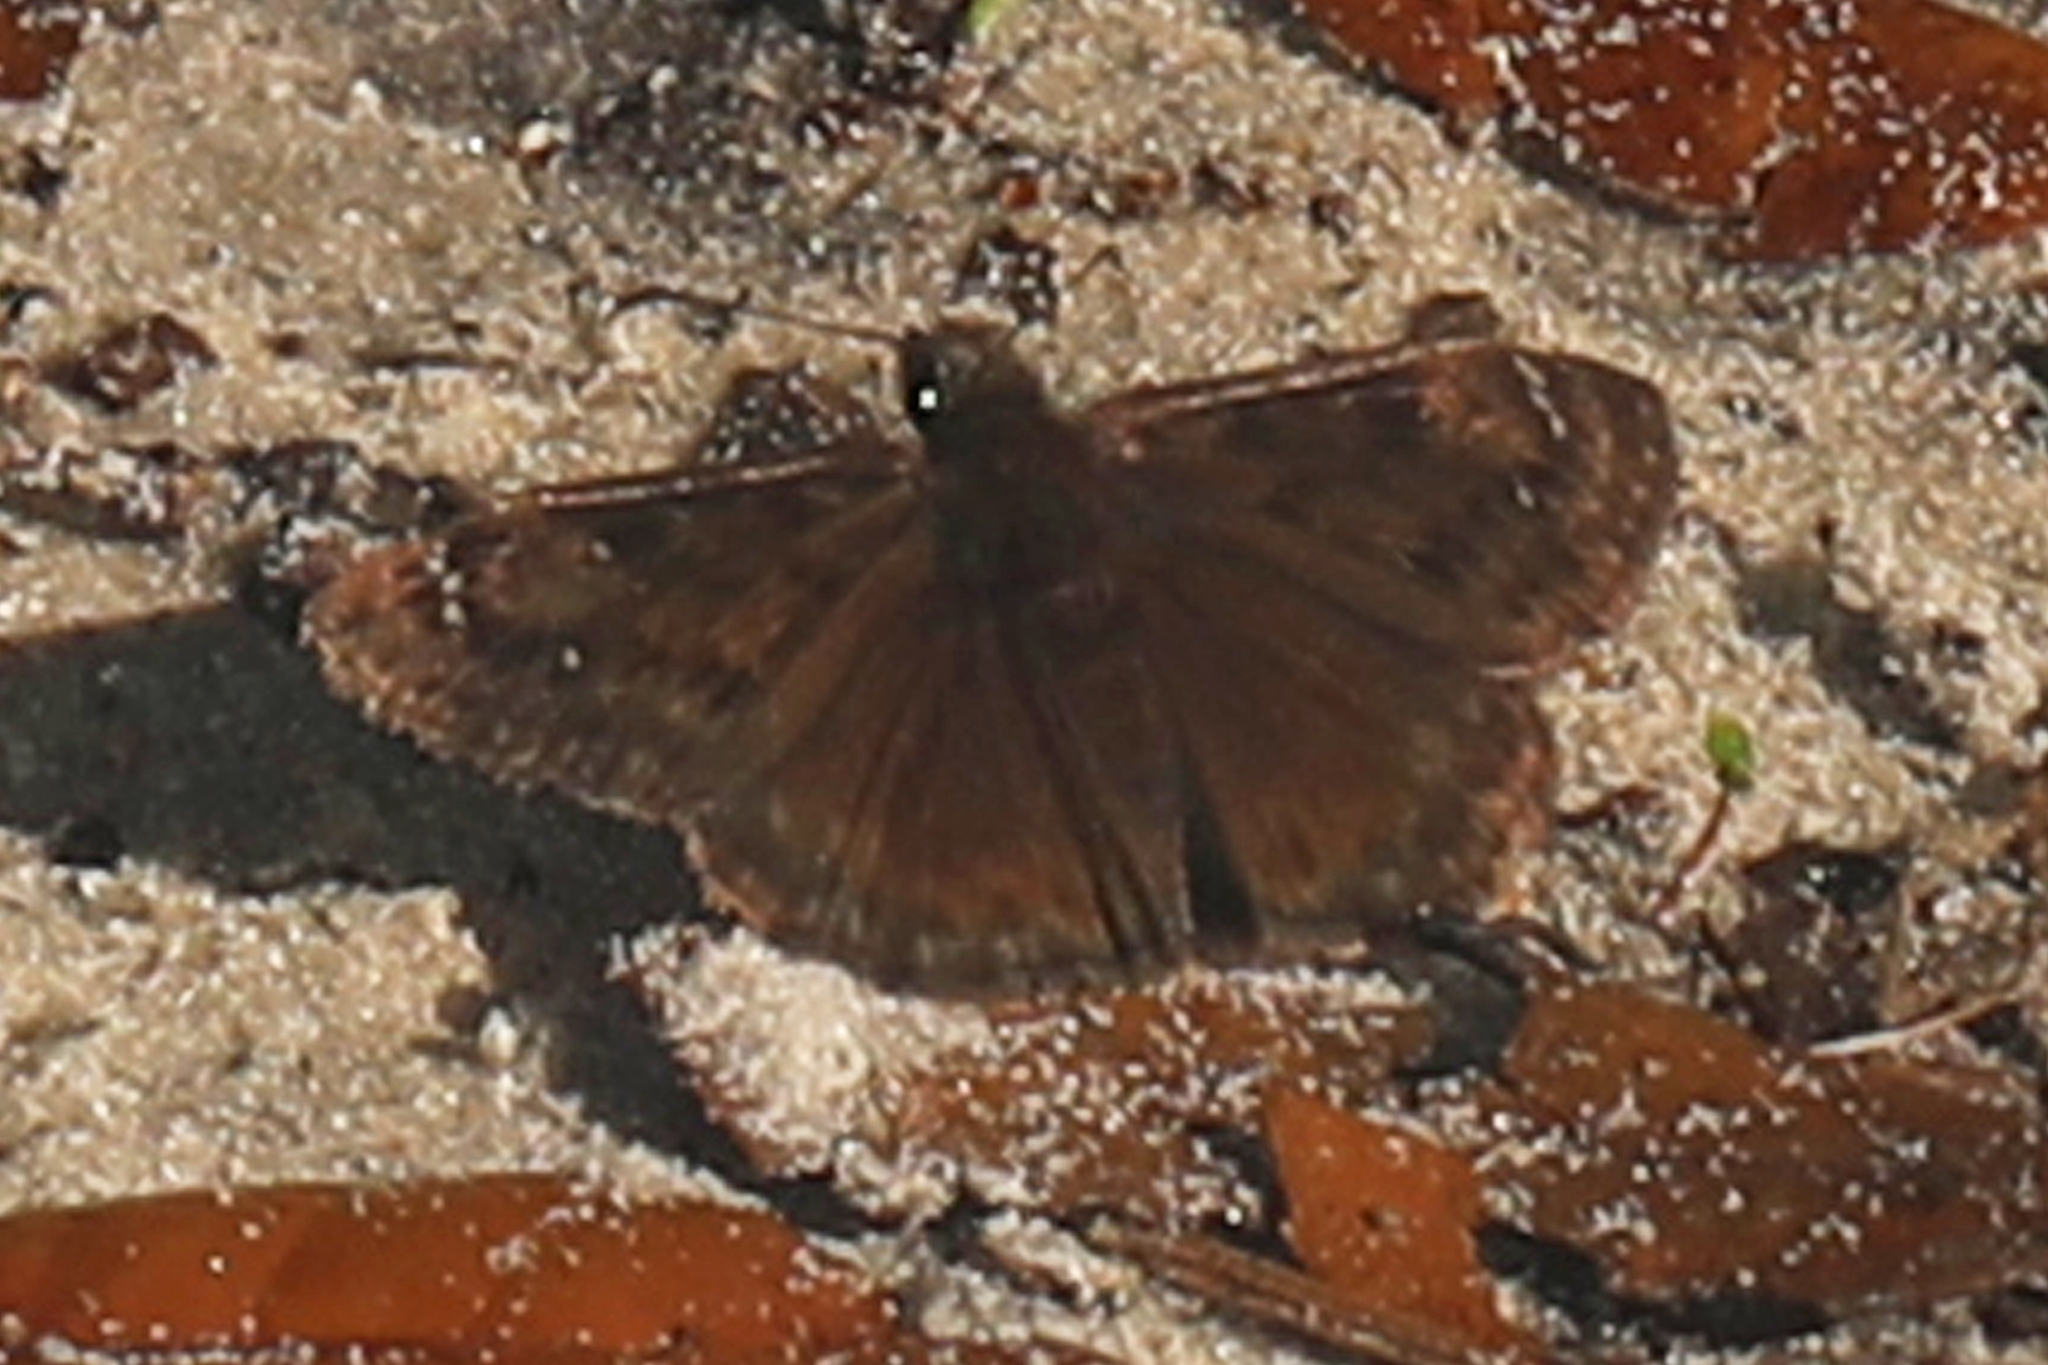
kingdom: Animalia
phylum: Arthropoda
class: Insecta
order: Lepidoptera
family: Hesperiidae
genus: Erynnis
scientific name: Erynnis horatius
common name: Horace's duskywing
